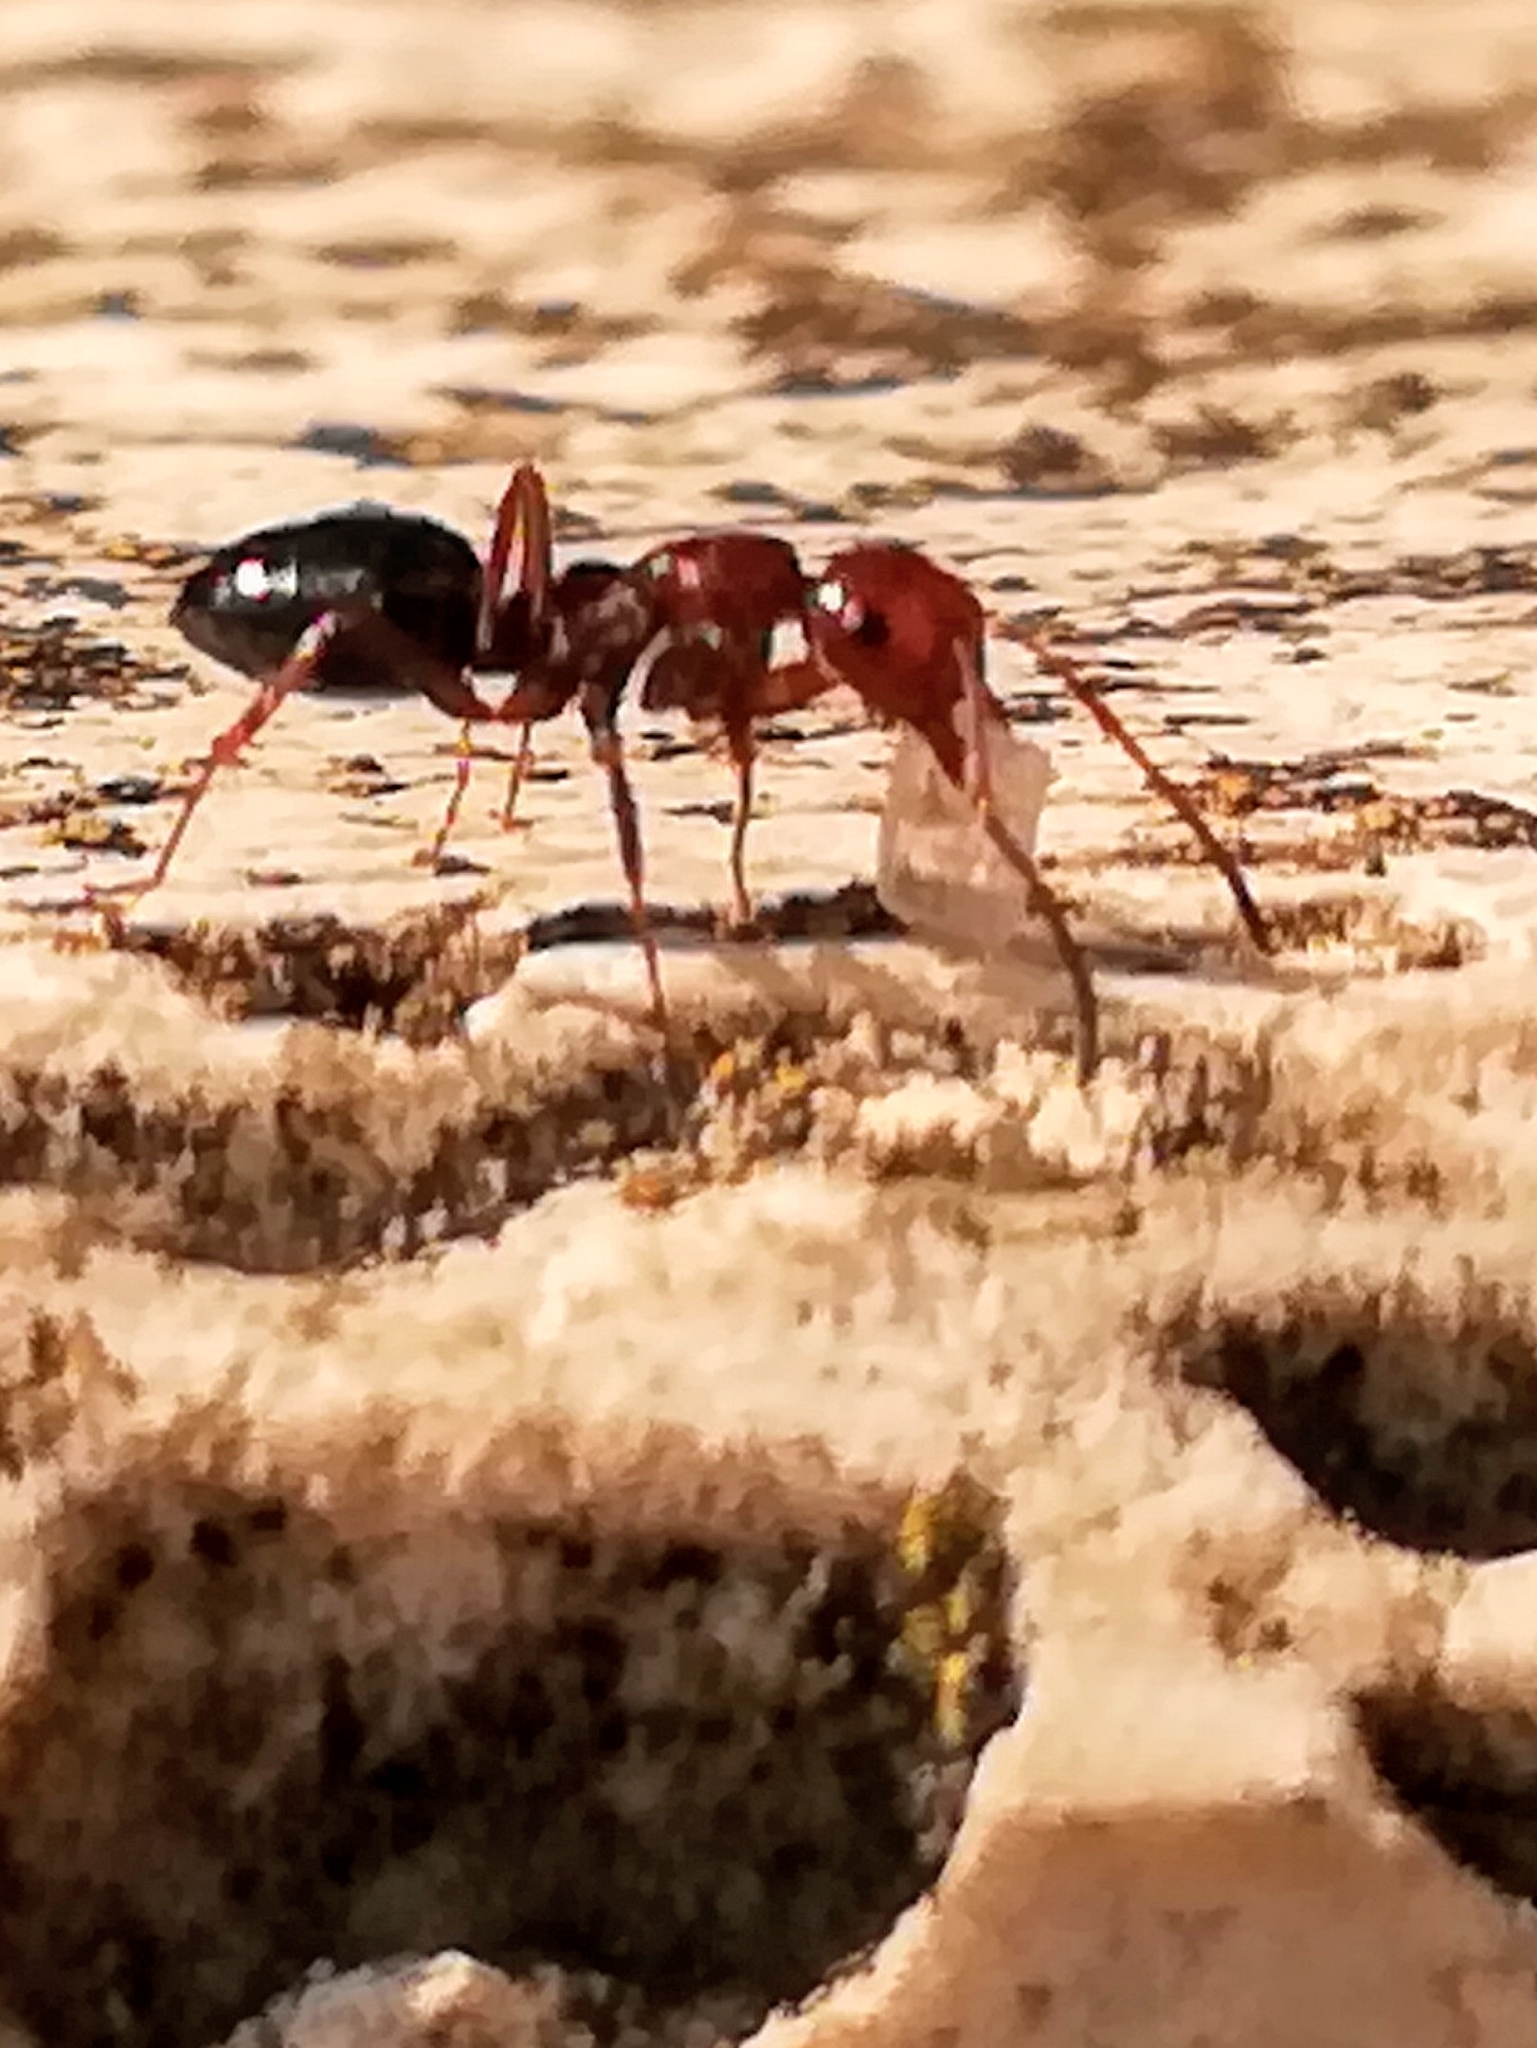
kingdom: Animalia
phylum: Arthropoda
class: Insecta
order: Hymenoptera
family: Formicidae
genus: Camponotus
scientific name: Camponotus lateralis
